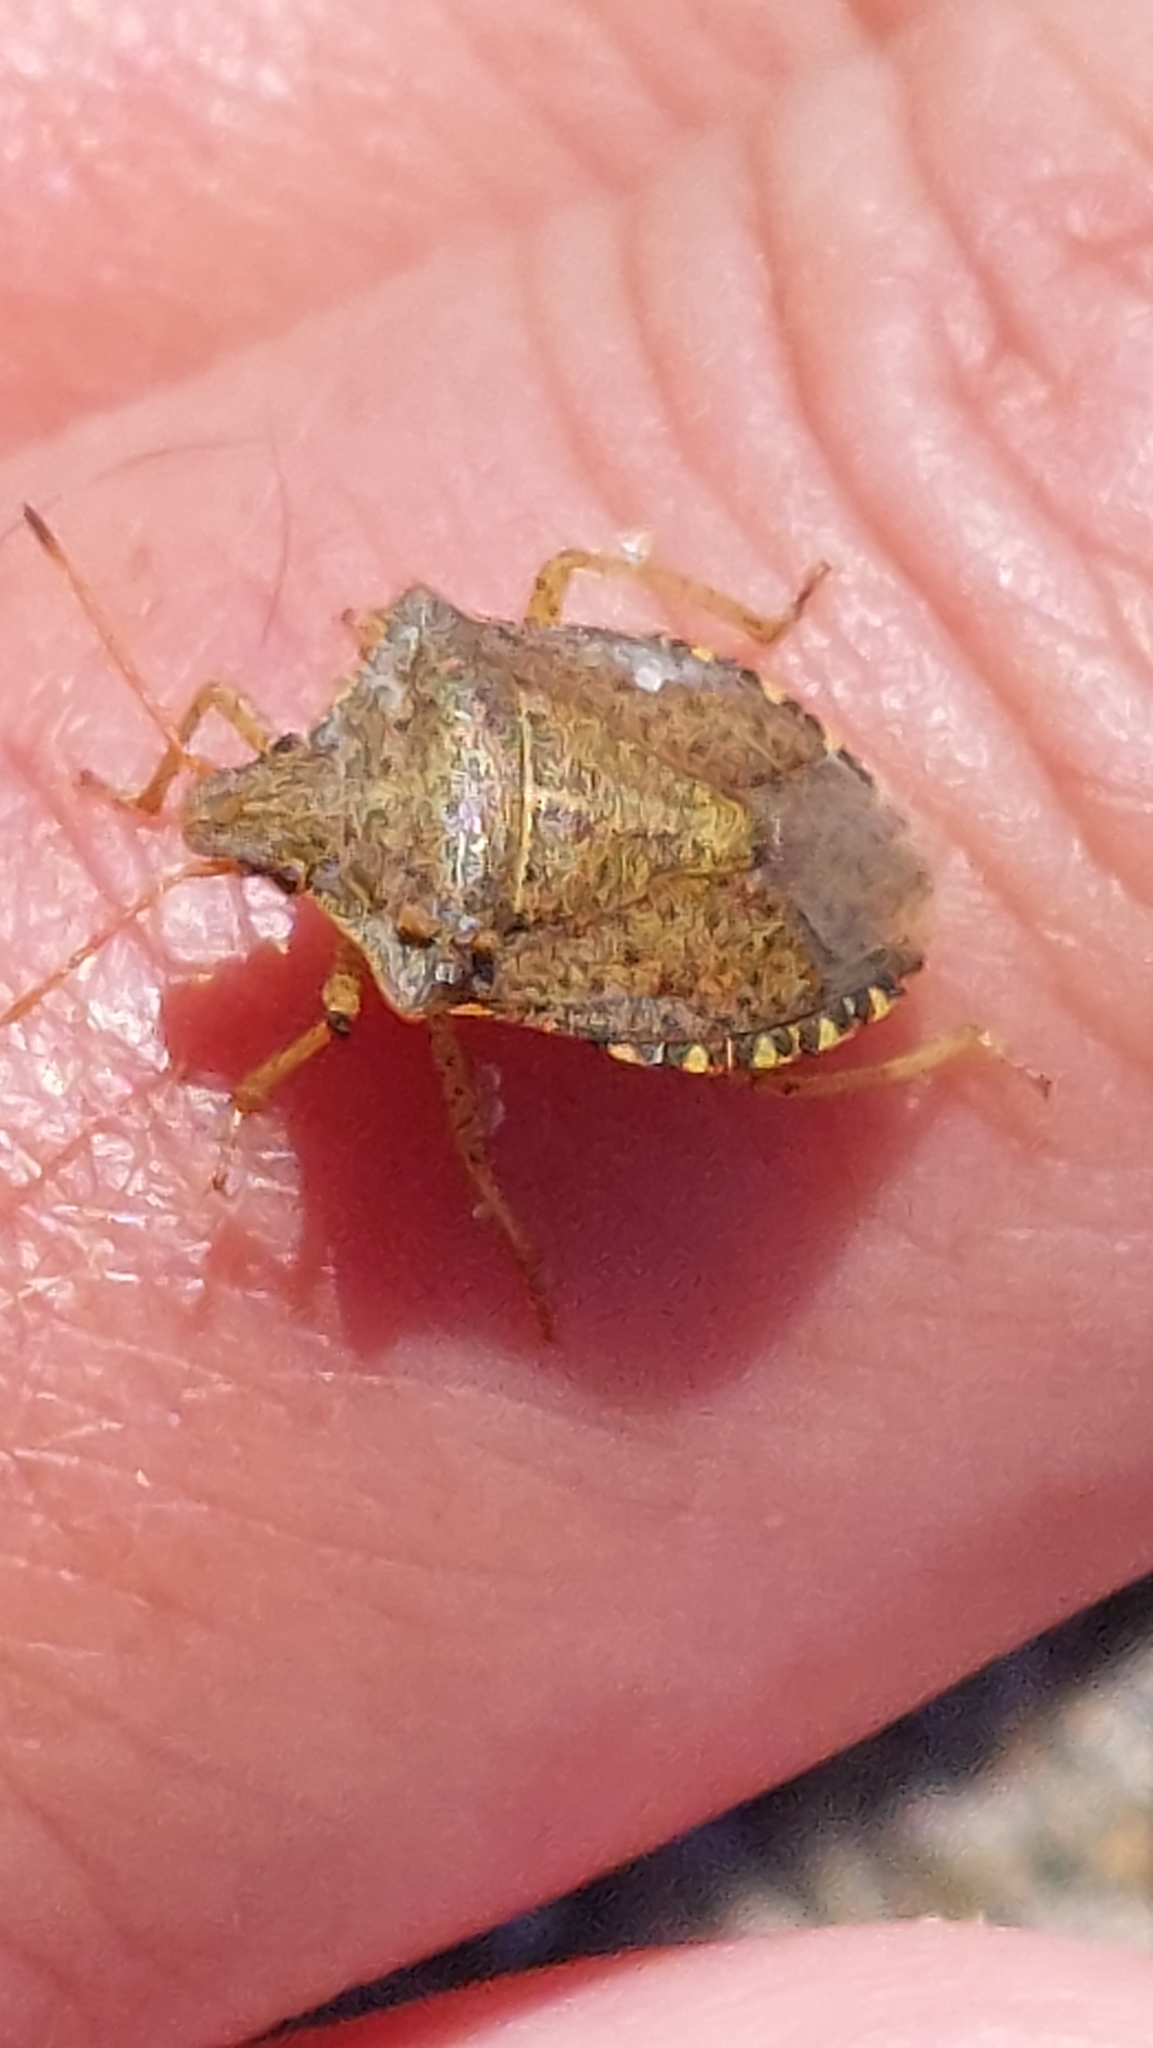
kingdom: Animalia
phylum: Arthropoda
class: Insecta
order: Hemiptera
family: Pentatomidae
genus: Euschistus
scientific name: Euschistus conspersus
